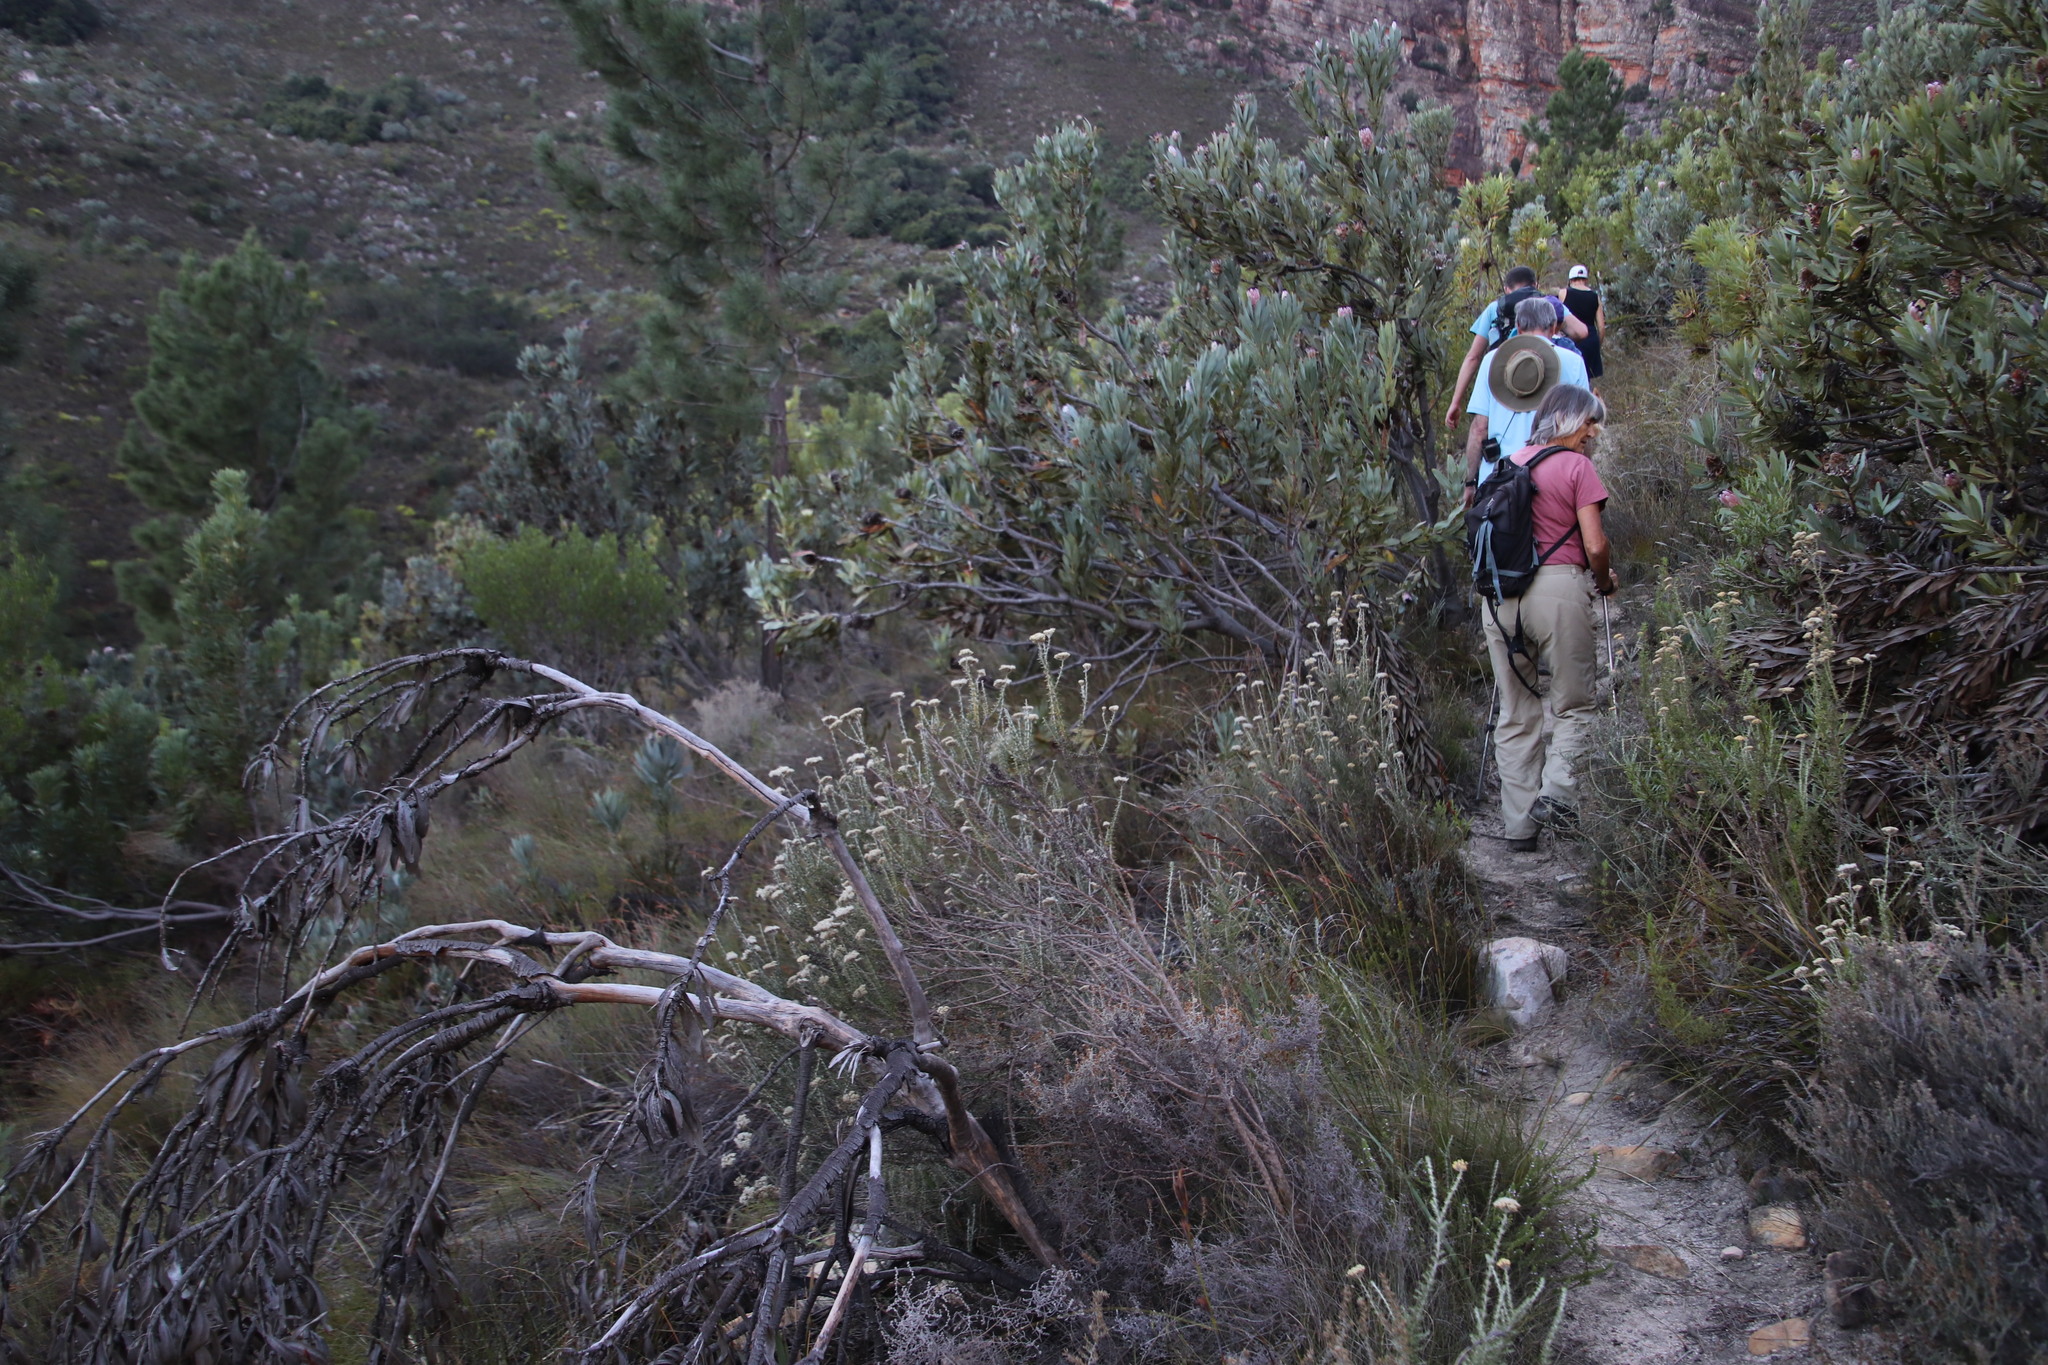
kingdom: Plantae
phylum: Tracheophyta
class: Magnoliopsida
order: Asterales
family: Asteraceae
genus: Metalasia
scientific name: Metalasia densa
